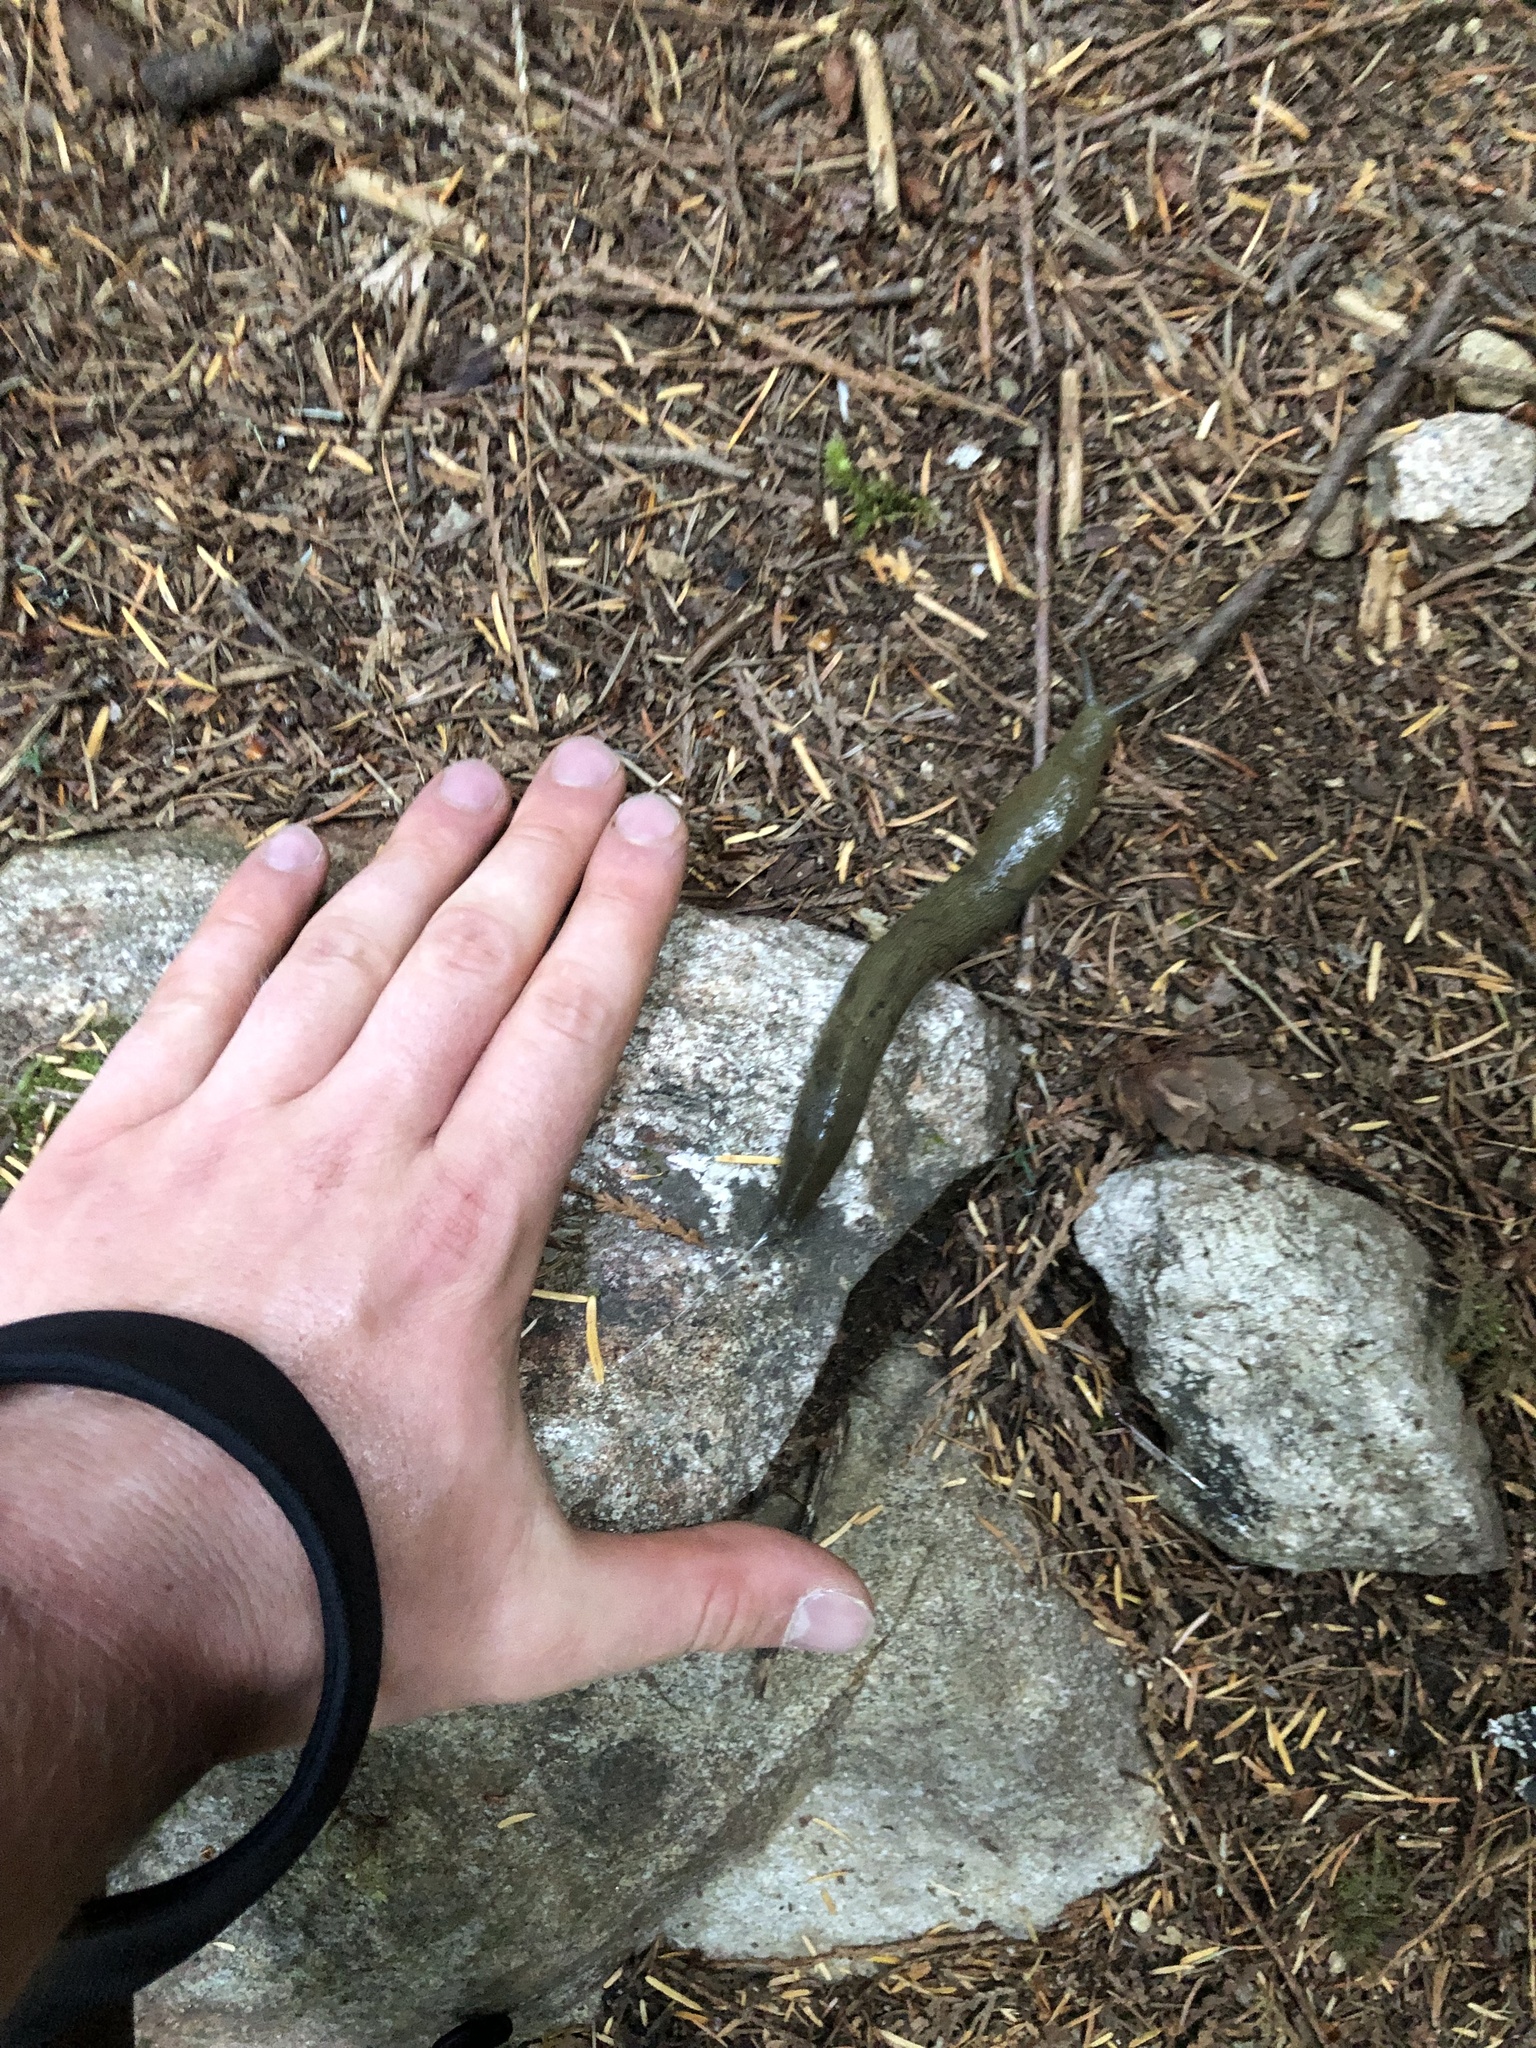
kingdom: Animalia
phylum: Mollusca
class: Gastropoda
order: Stylommatophora
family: Ariolimacidae
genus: Ariolimax
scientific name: Ariolimax columbianus
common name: Pacific banana slug
